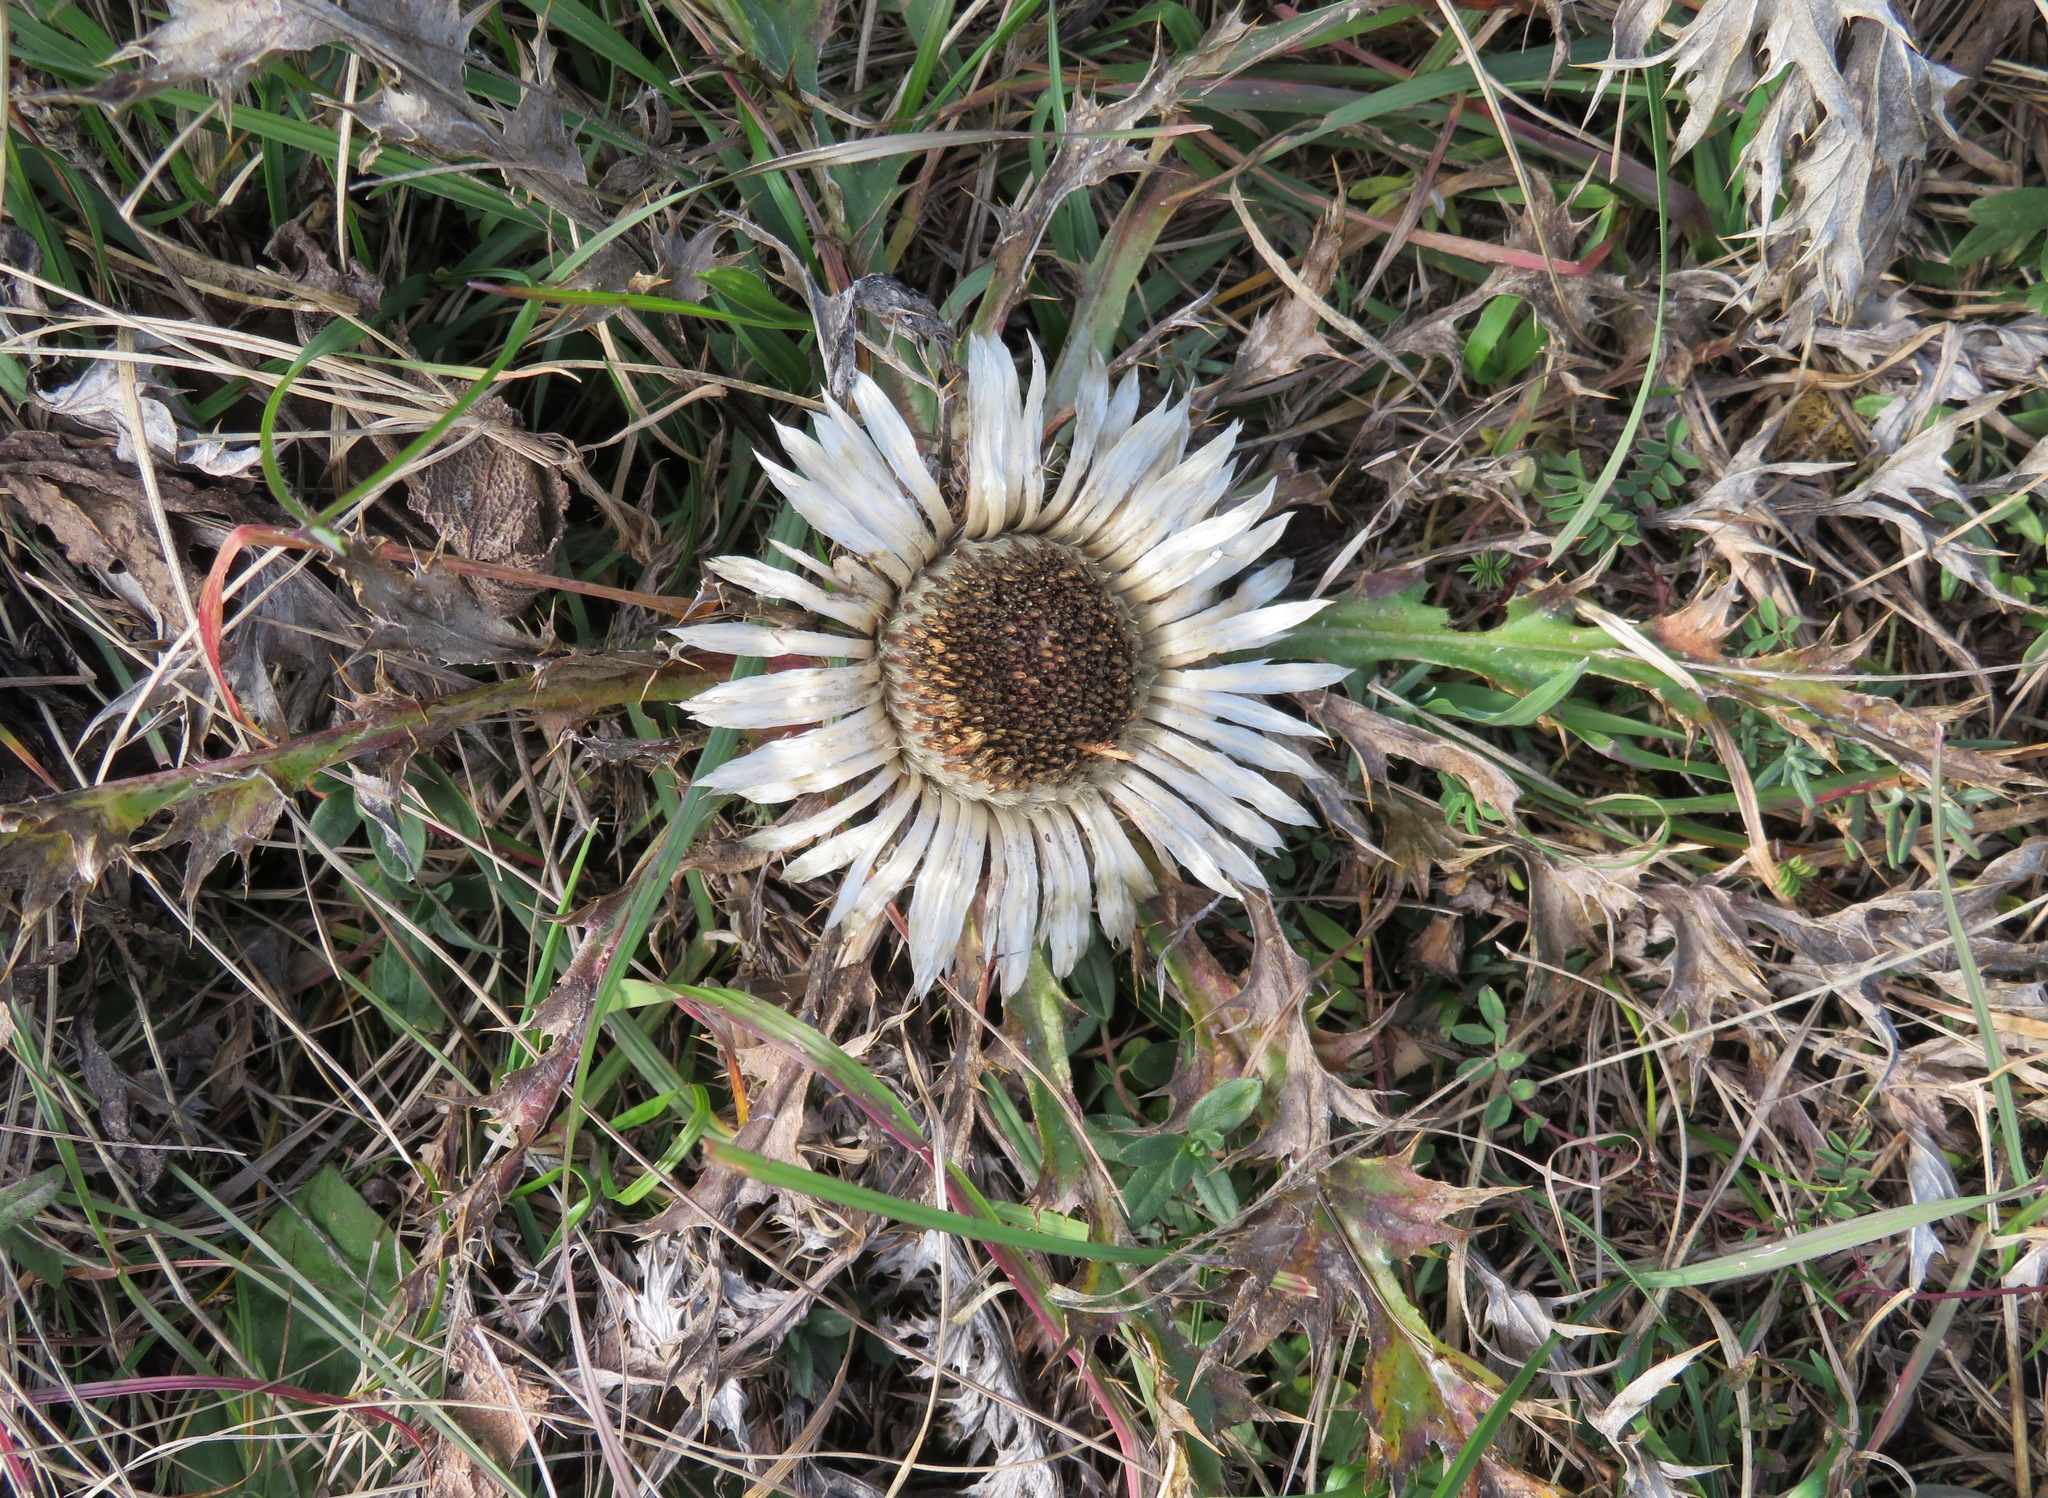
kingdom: Plantae
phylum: Tracheophyta
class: Magnoliopsida
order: Asterales
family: Asteraceae
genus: Carlina
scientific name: Carlina acaulis
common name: Stemless carline thistle
